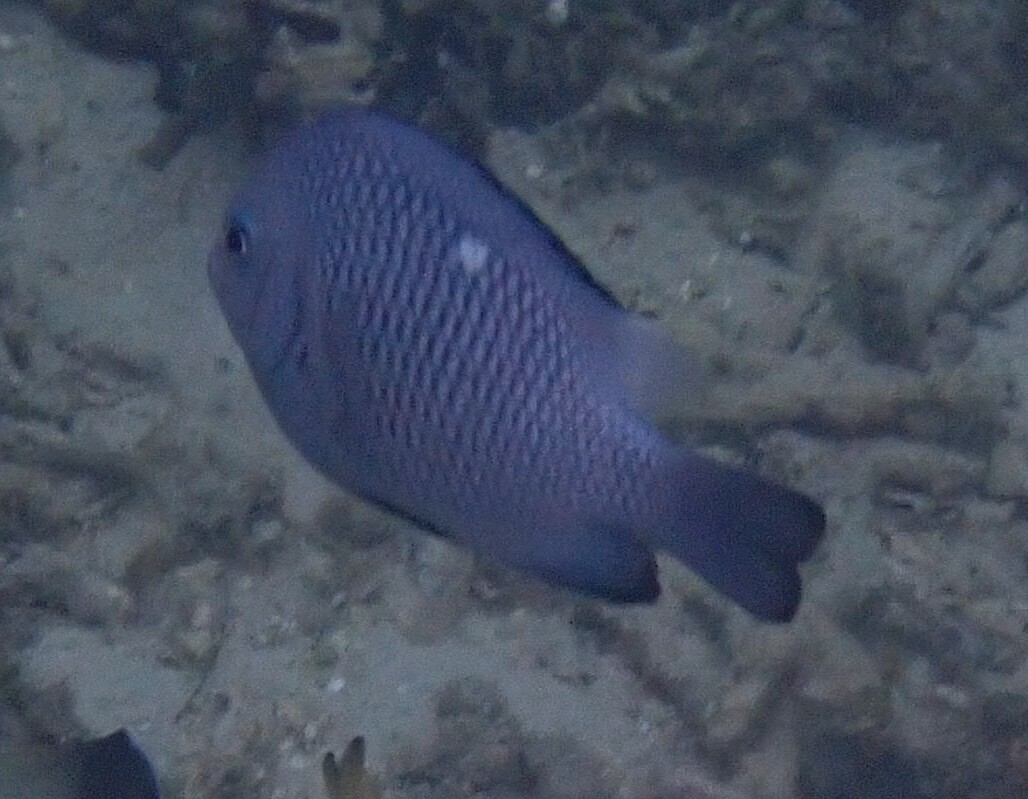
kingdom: Animalia
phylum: Chordata
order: Perciformes
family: Pomacentridae
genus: Dascyllus
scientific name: Dascyllus trimaculatus
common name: Threespot dascyllus
